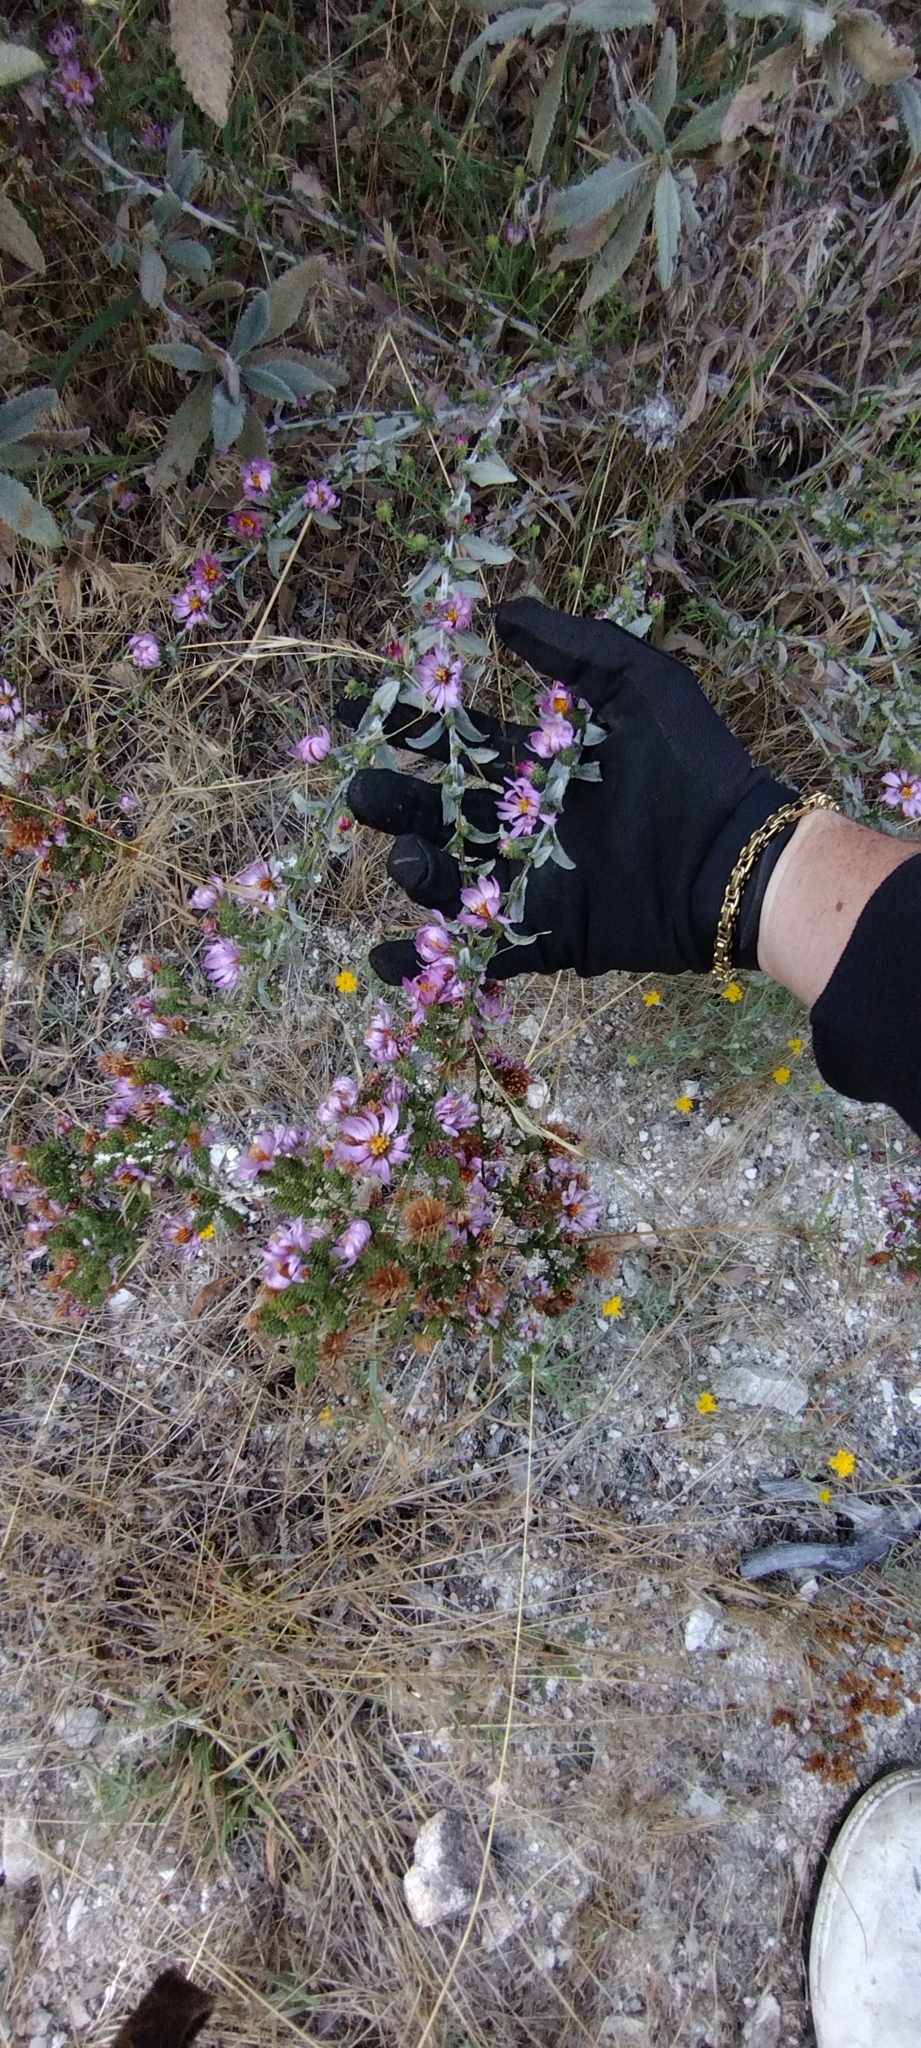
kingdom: Plantae
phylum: Tracheophyta
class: Magnoliopsida
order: Asterales
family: Asteraceae
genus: Corethrogyne
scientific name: Corethrogyne filaginifolia
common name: Sand-aster
